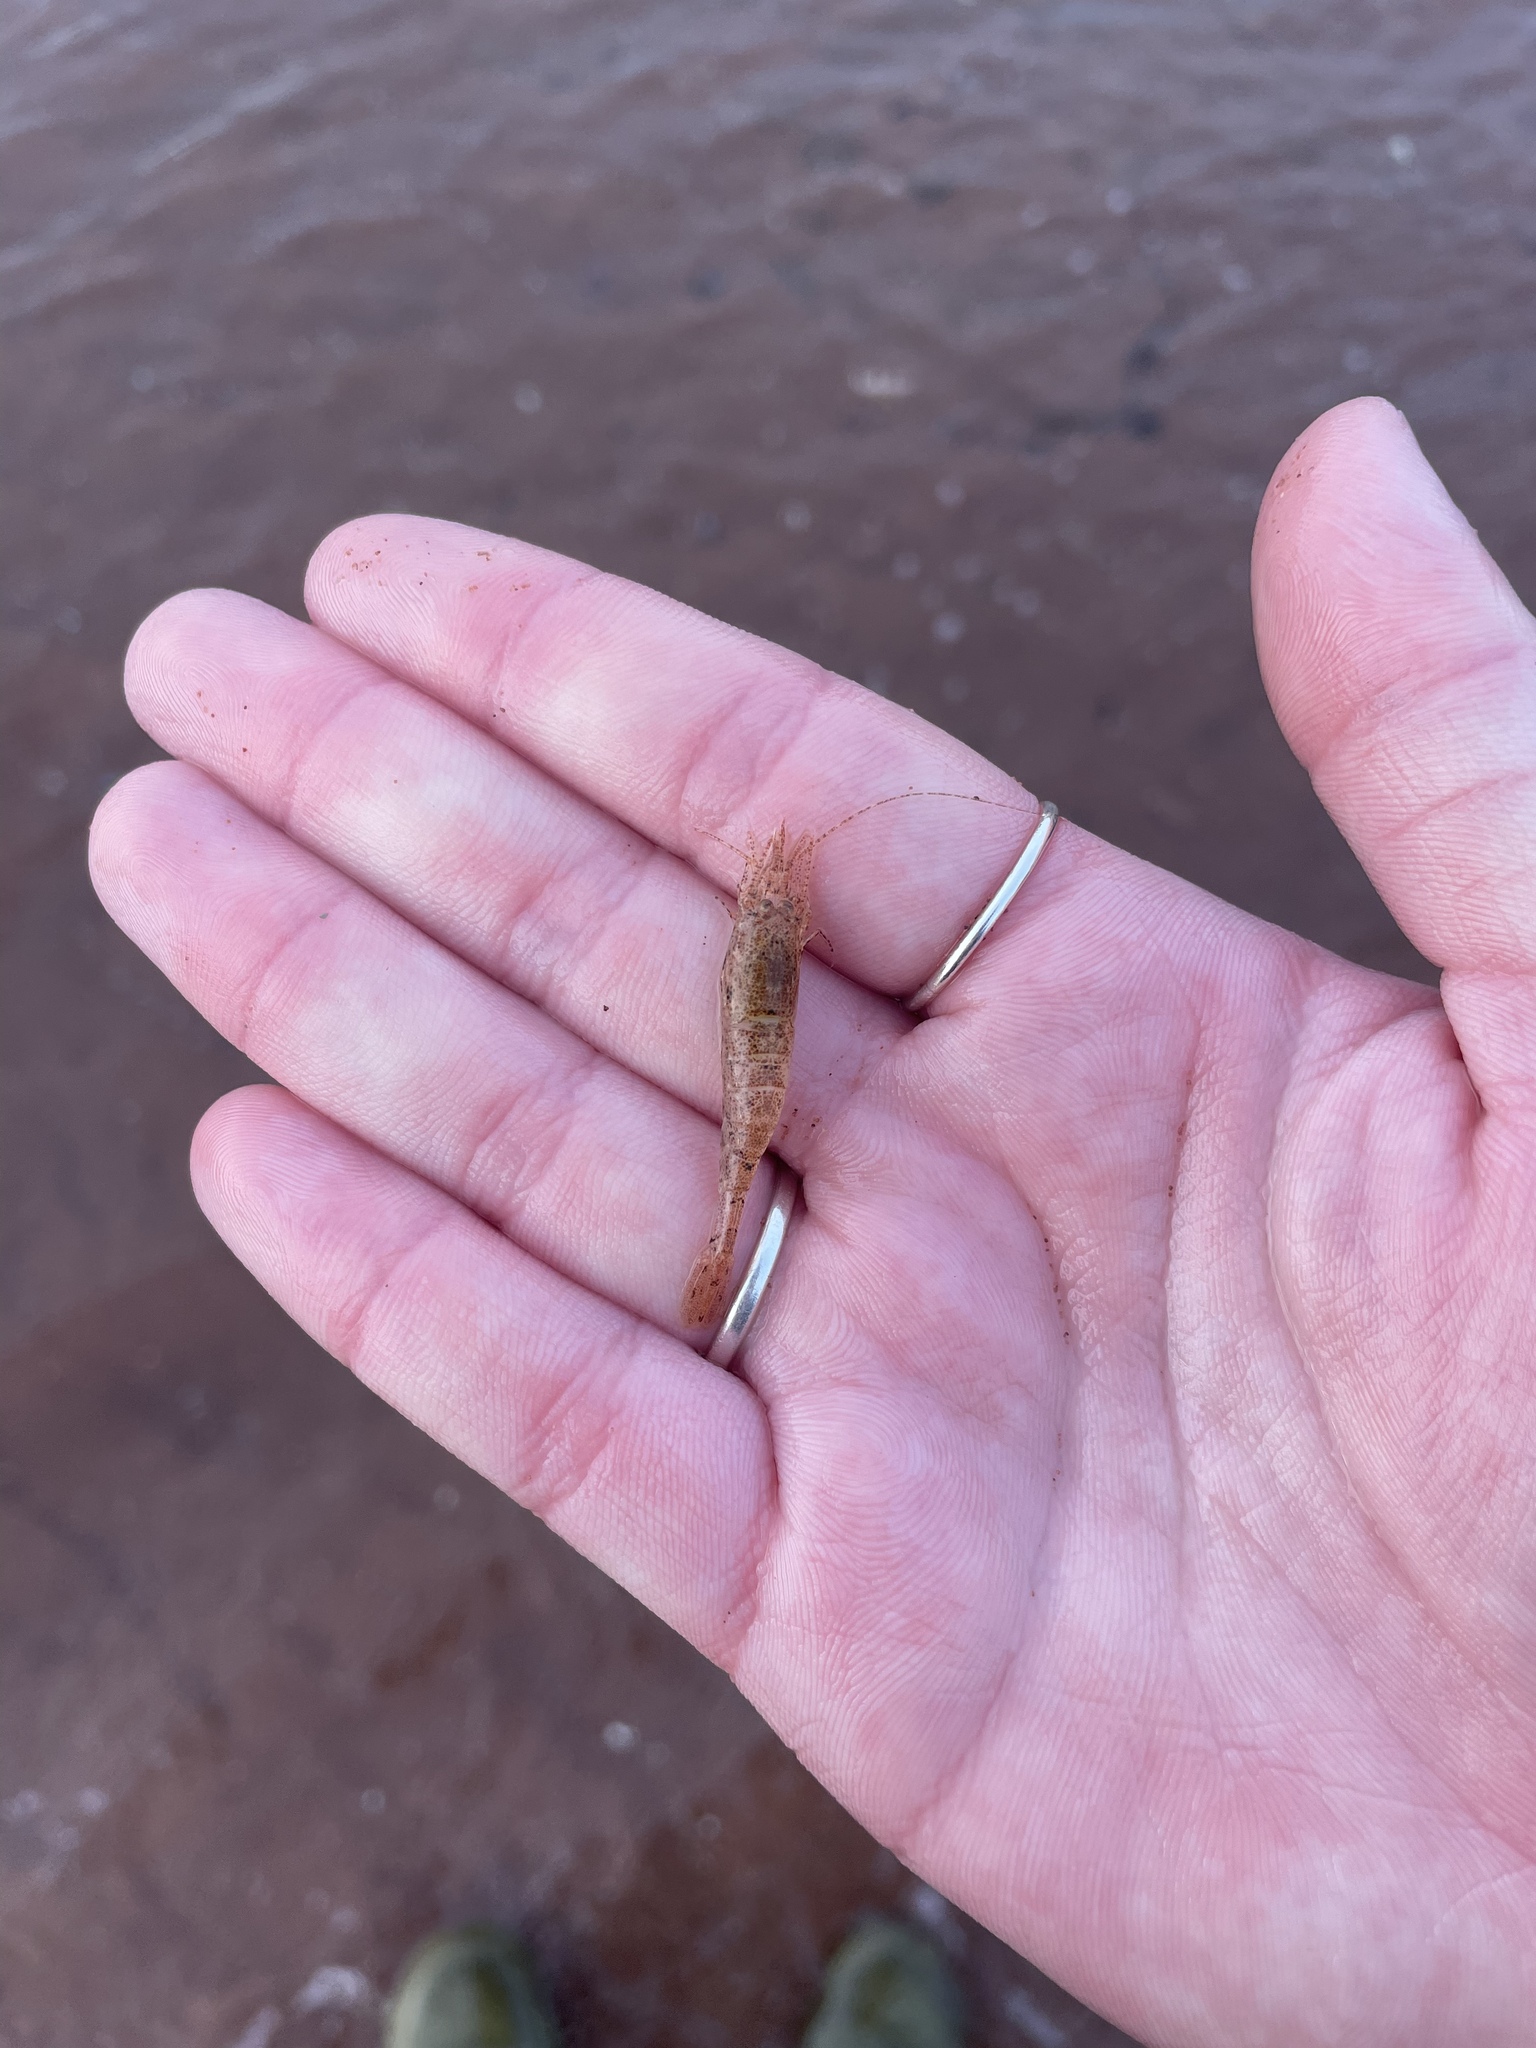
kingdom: Animalia
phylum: Arthropoda
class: Malacostraca
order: Decapoda
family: Crangonidae
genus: Crangon
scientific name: Crangon septemspinosa
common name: Bail shrimp
